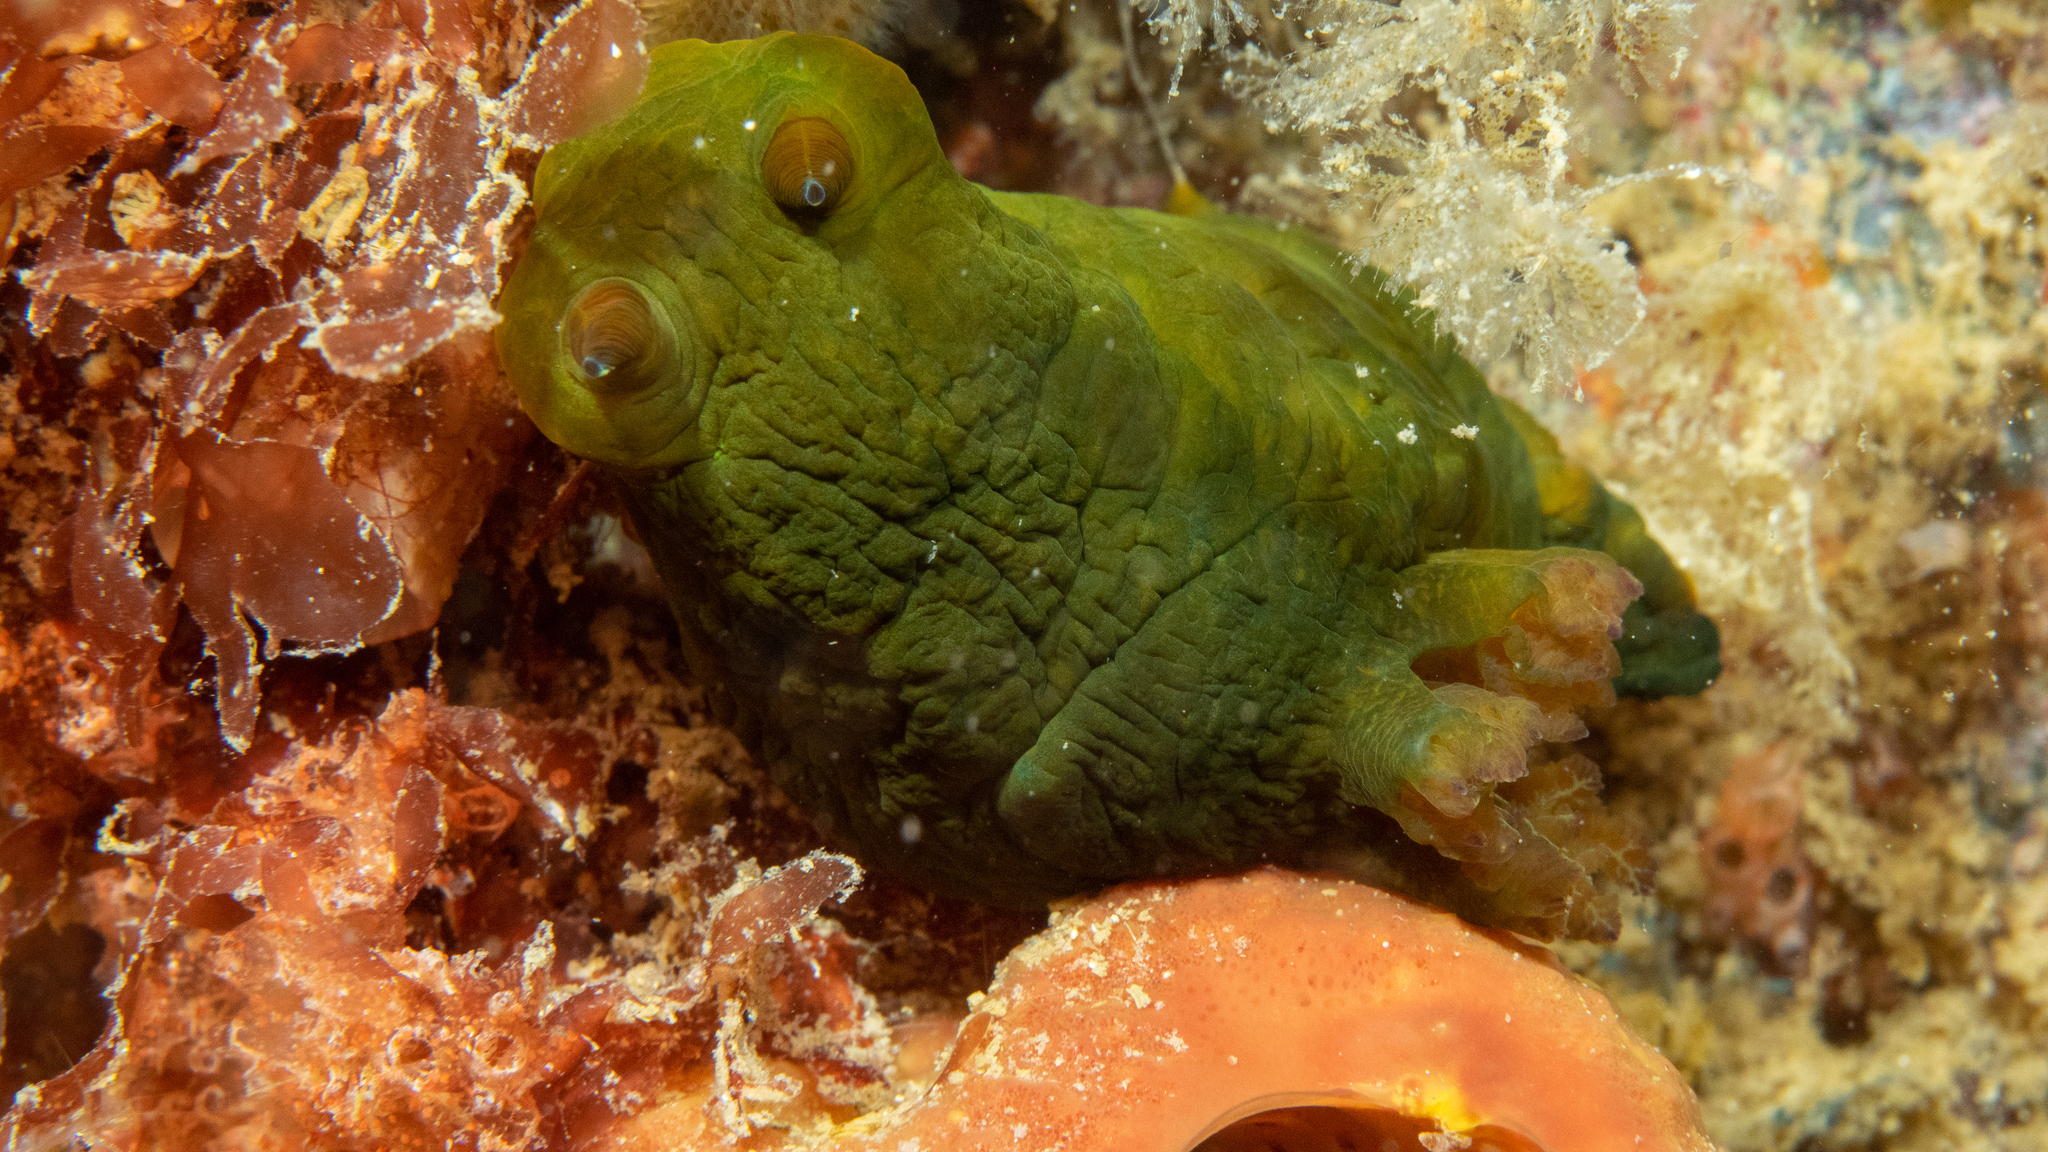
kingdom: Animalia
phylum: Mollusca
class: Gastropoda
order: Nudibranchia
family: Polyceridae
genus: Tambja
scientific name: Tambja dracomus
